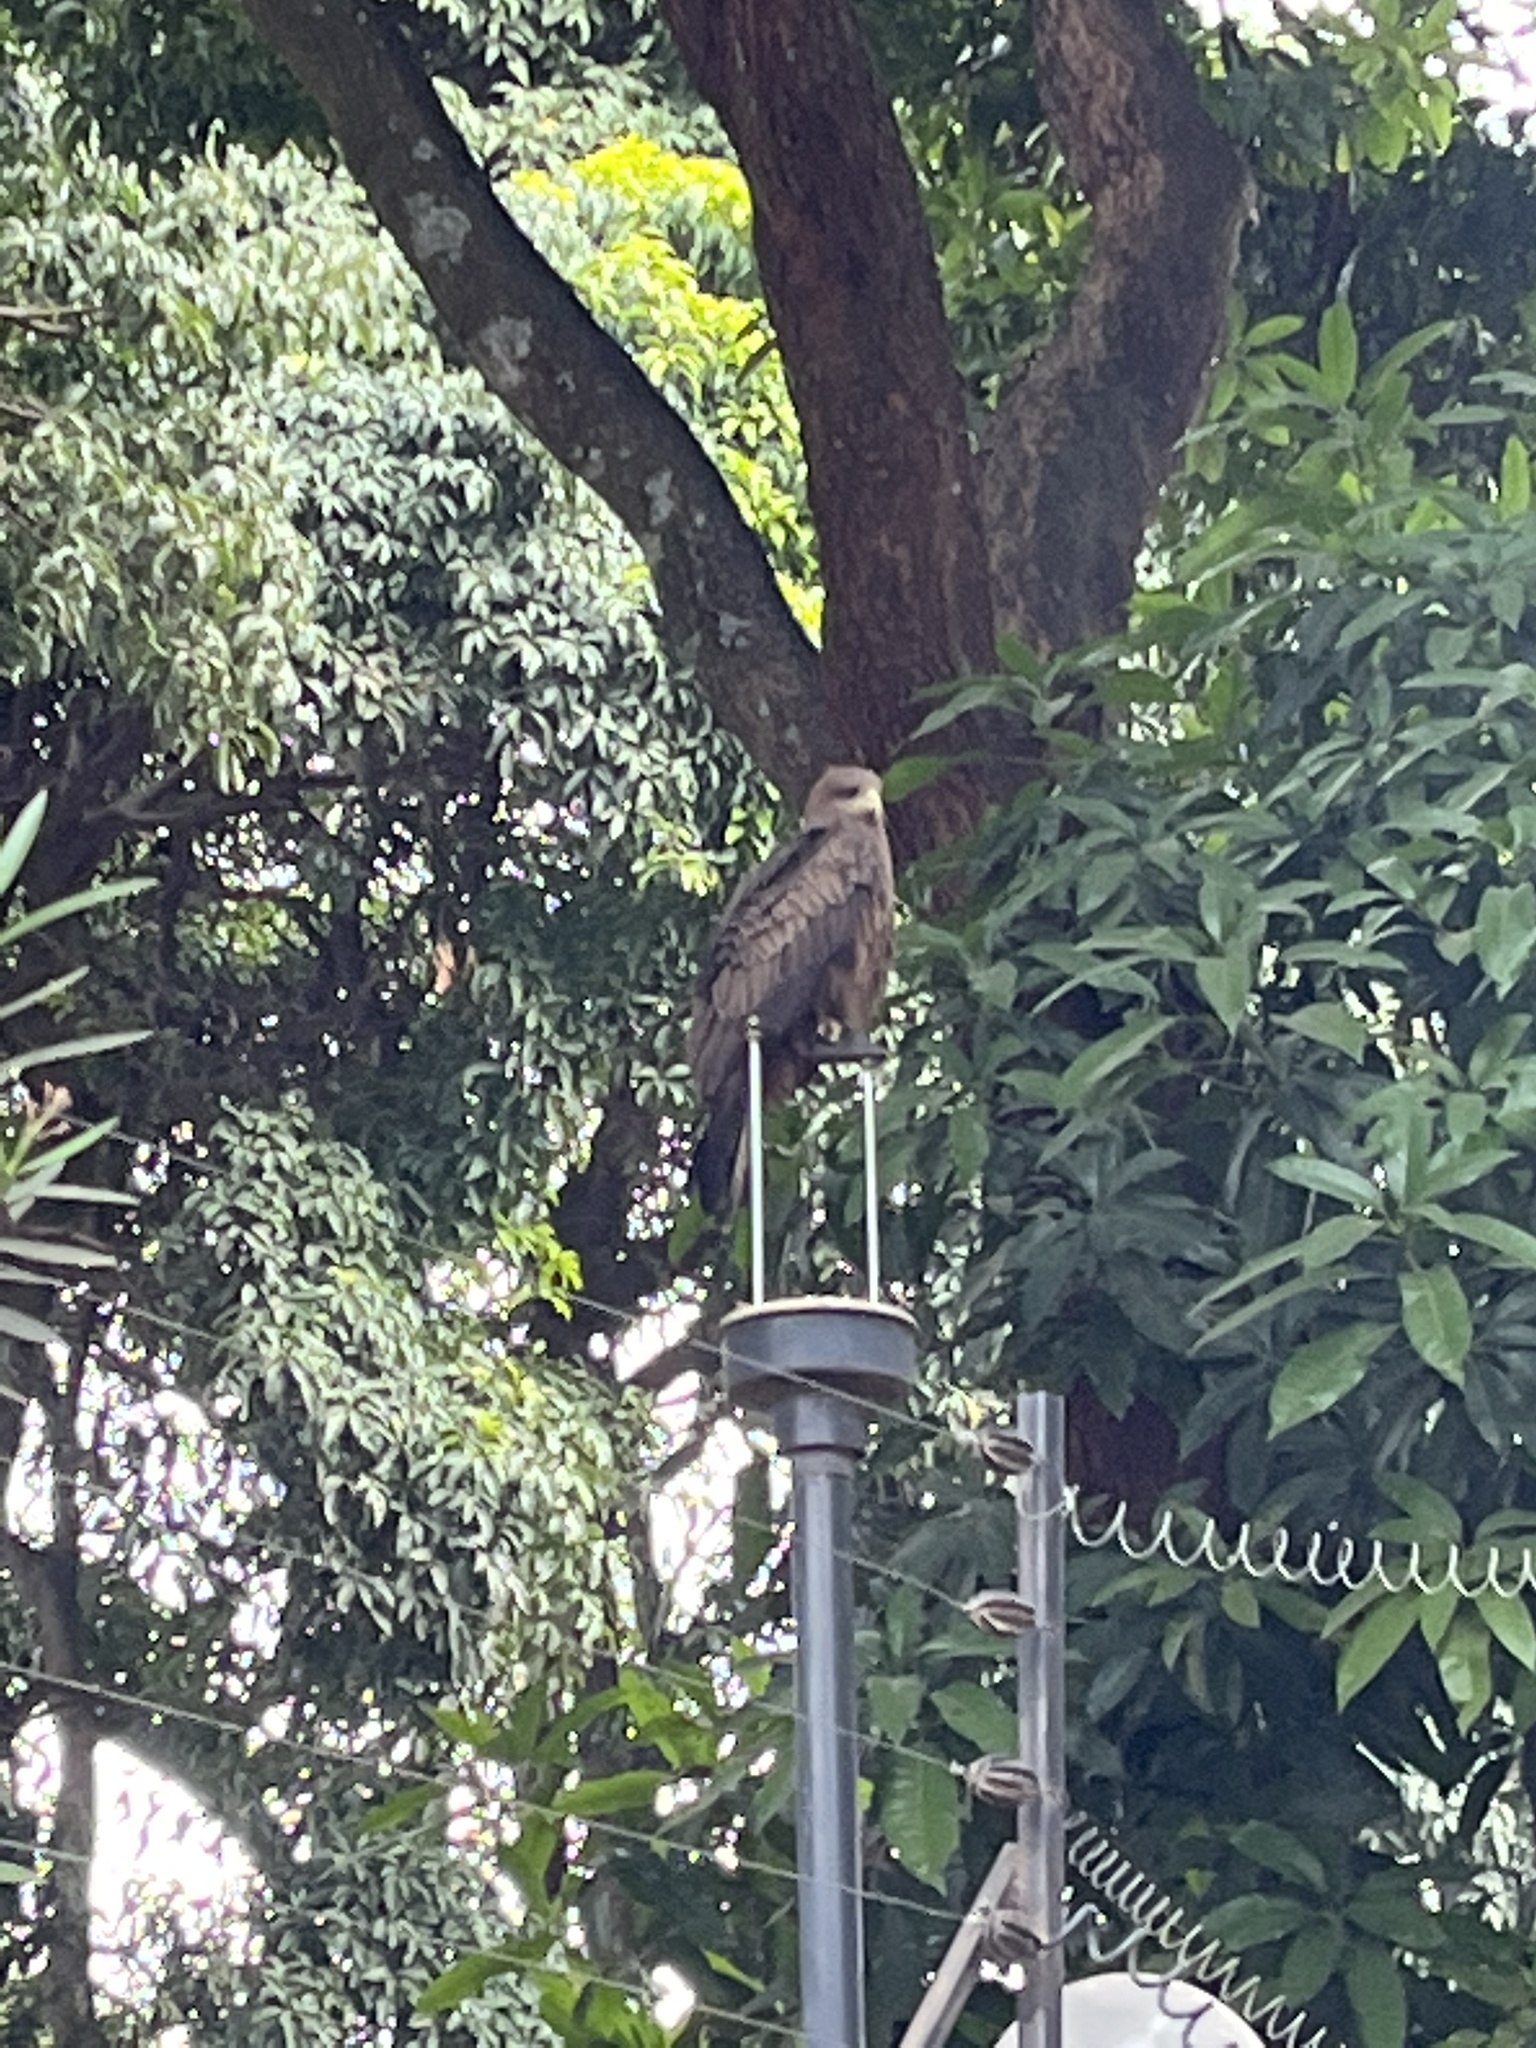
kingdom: Animalia
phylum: Chordata
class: Aves
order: Accipitriformes
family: Accipitridae
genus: Milvus
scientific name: Milvus migrans
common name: Black kite
